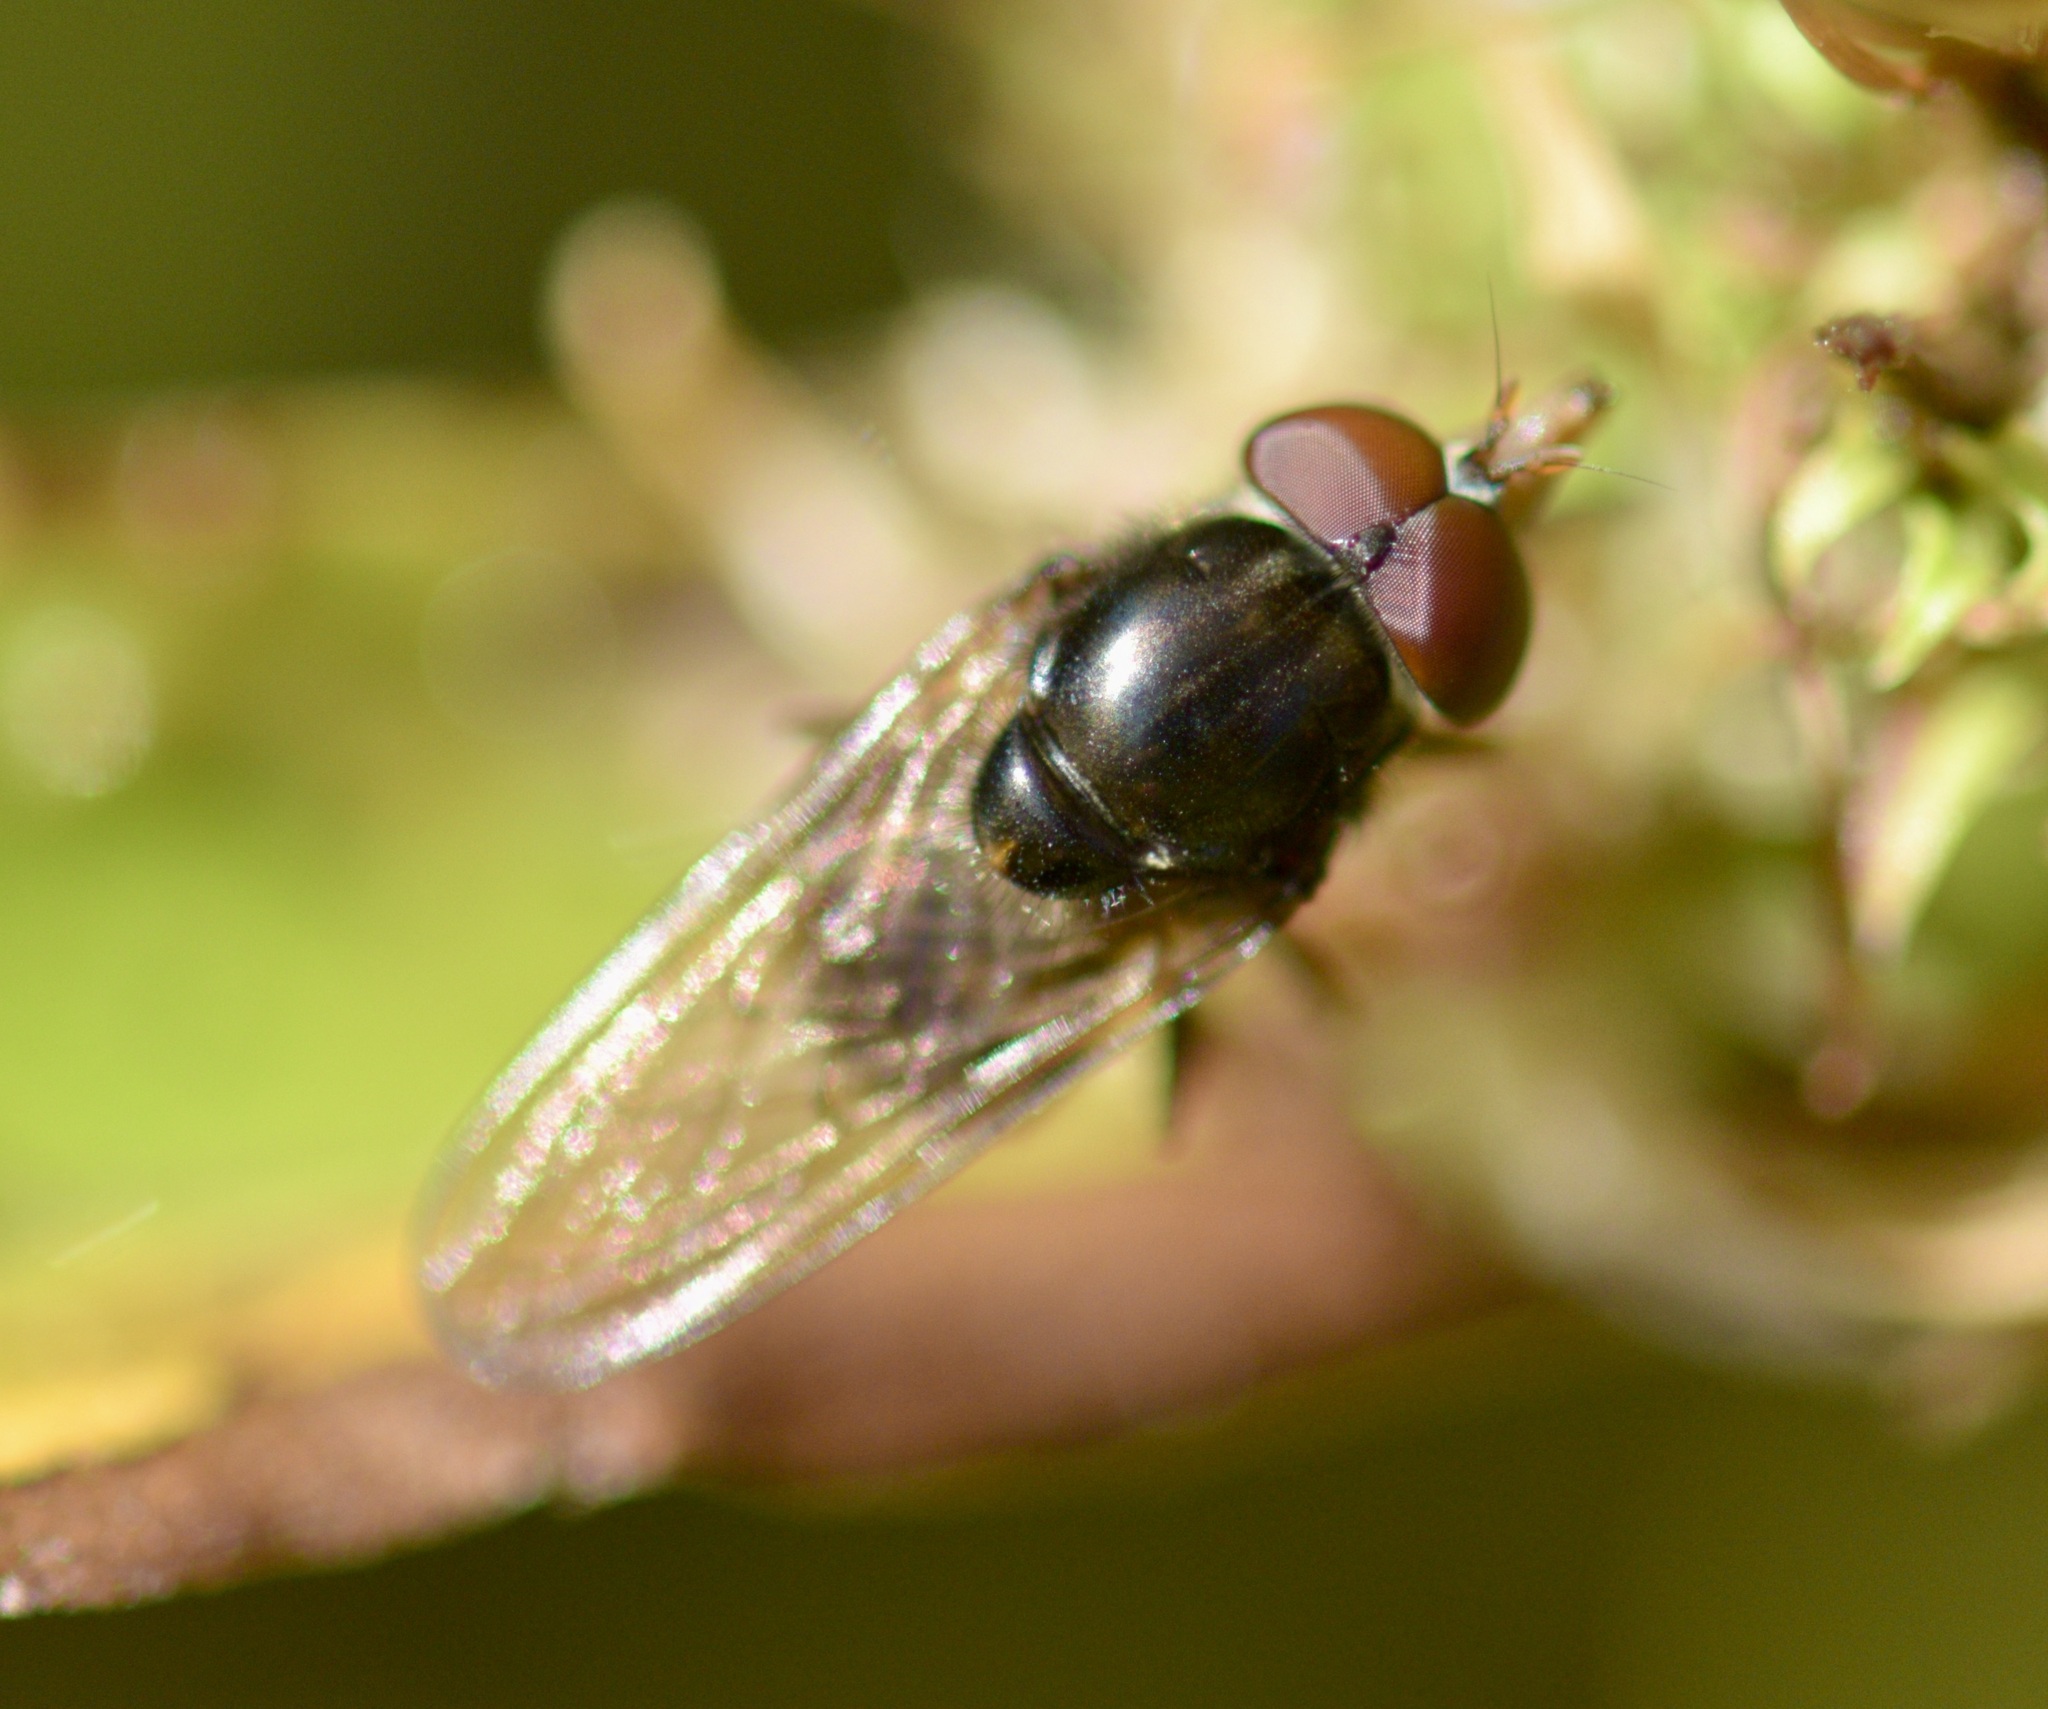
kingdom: Animalia
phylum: Arthropoda
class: Insecta
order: Diptera
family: Syrphidae
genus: Rhingia
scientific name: Rhingia nasica
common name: American snout fly
